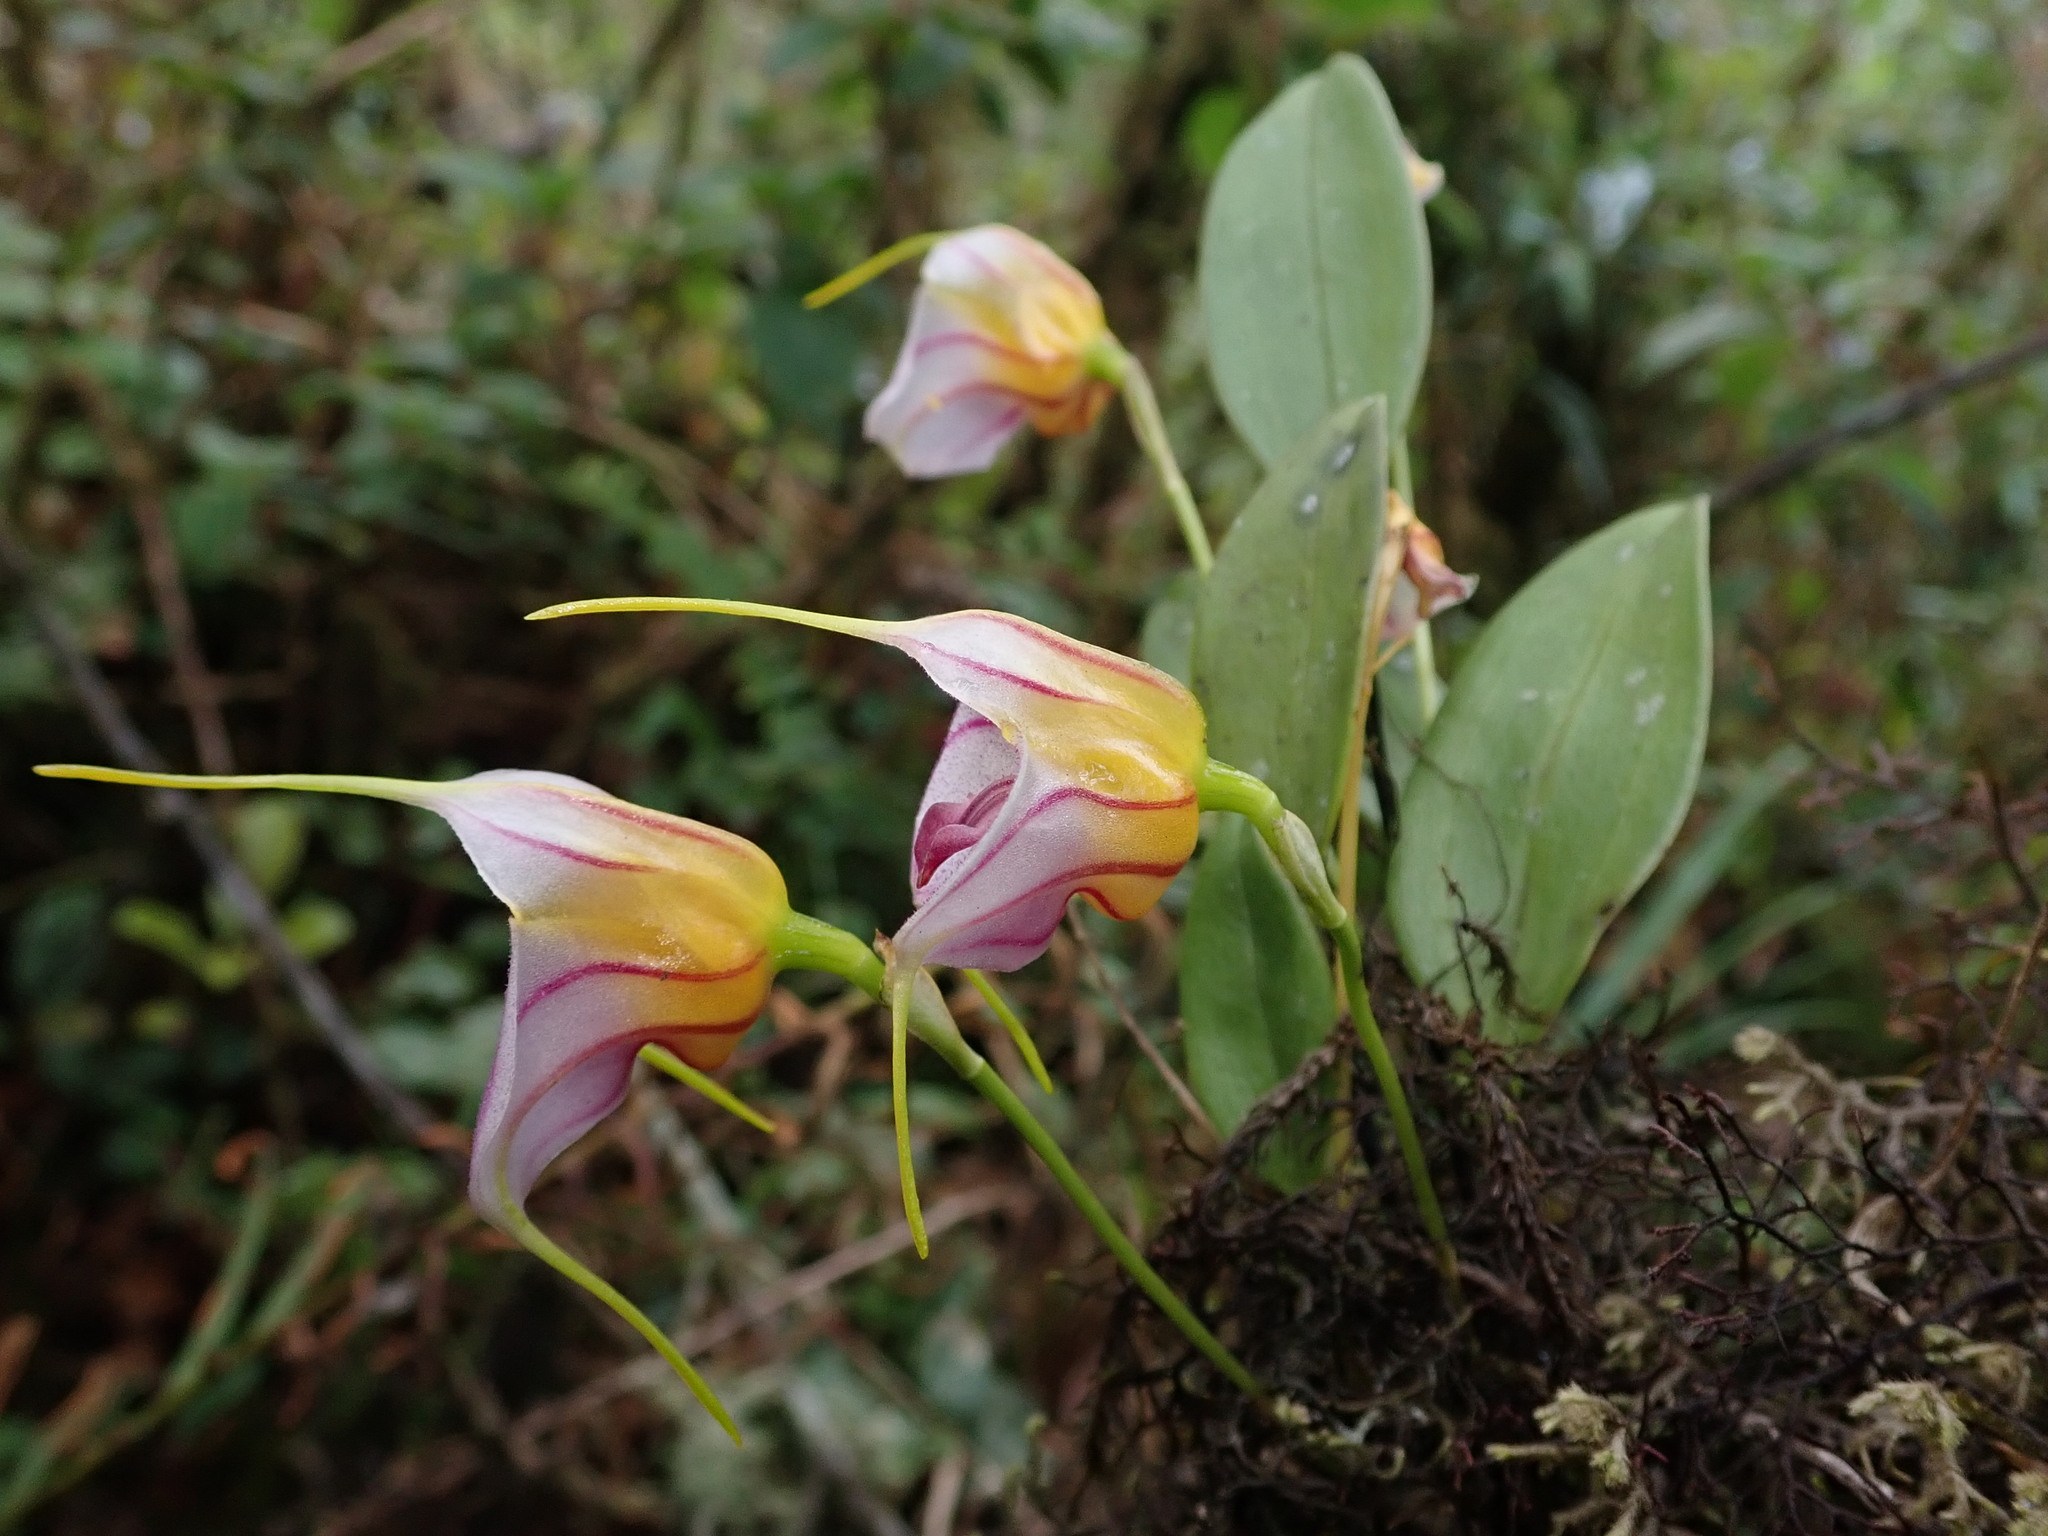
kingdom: Plantae
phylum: Tracheophyta
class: Liliopsida
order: Asparagales
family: Orchidaceae
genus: Masdevallia
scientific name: Masdevallia yungasensis
